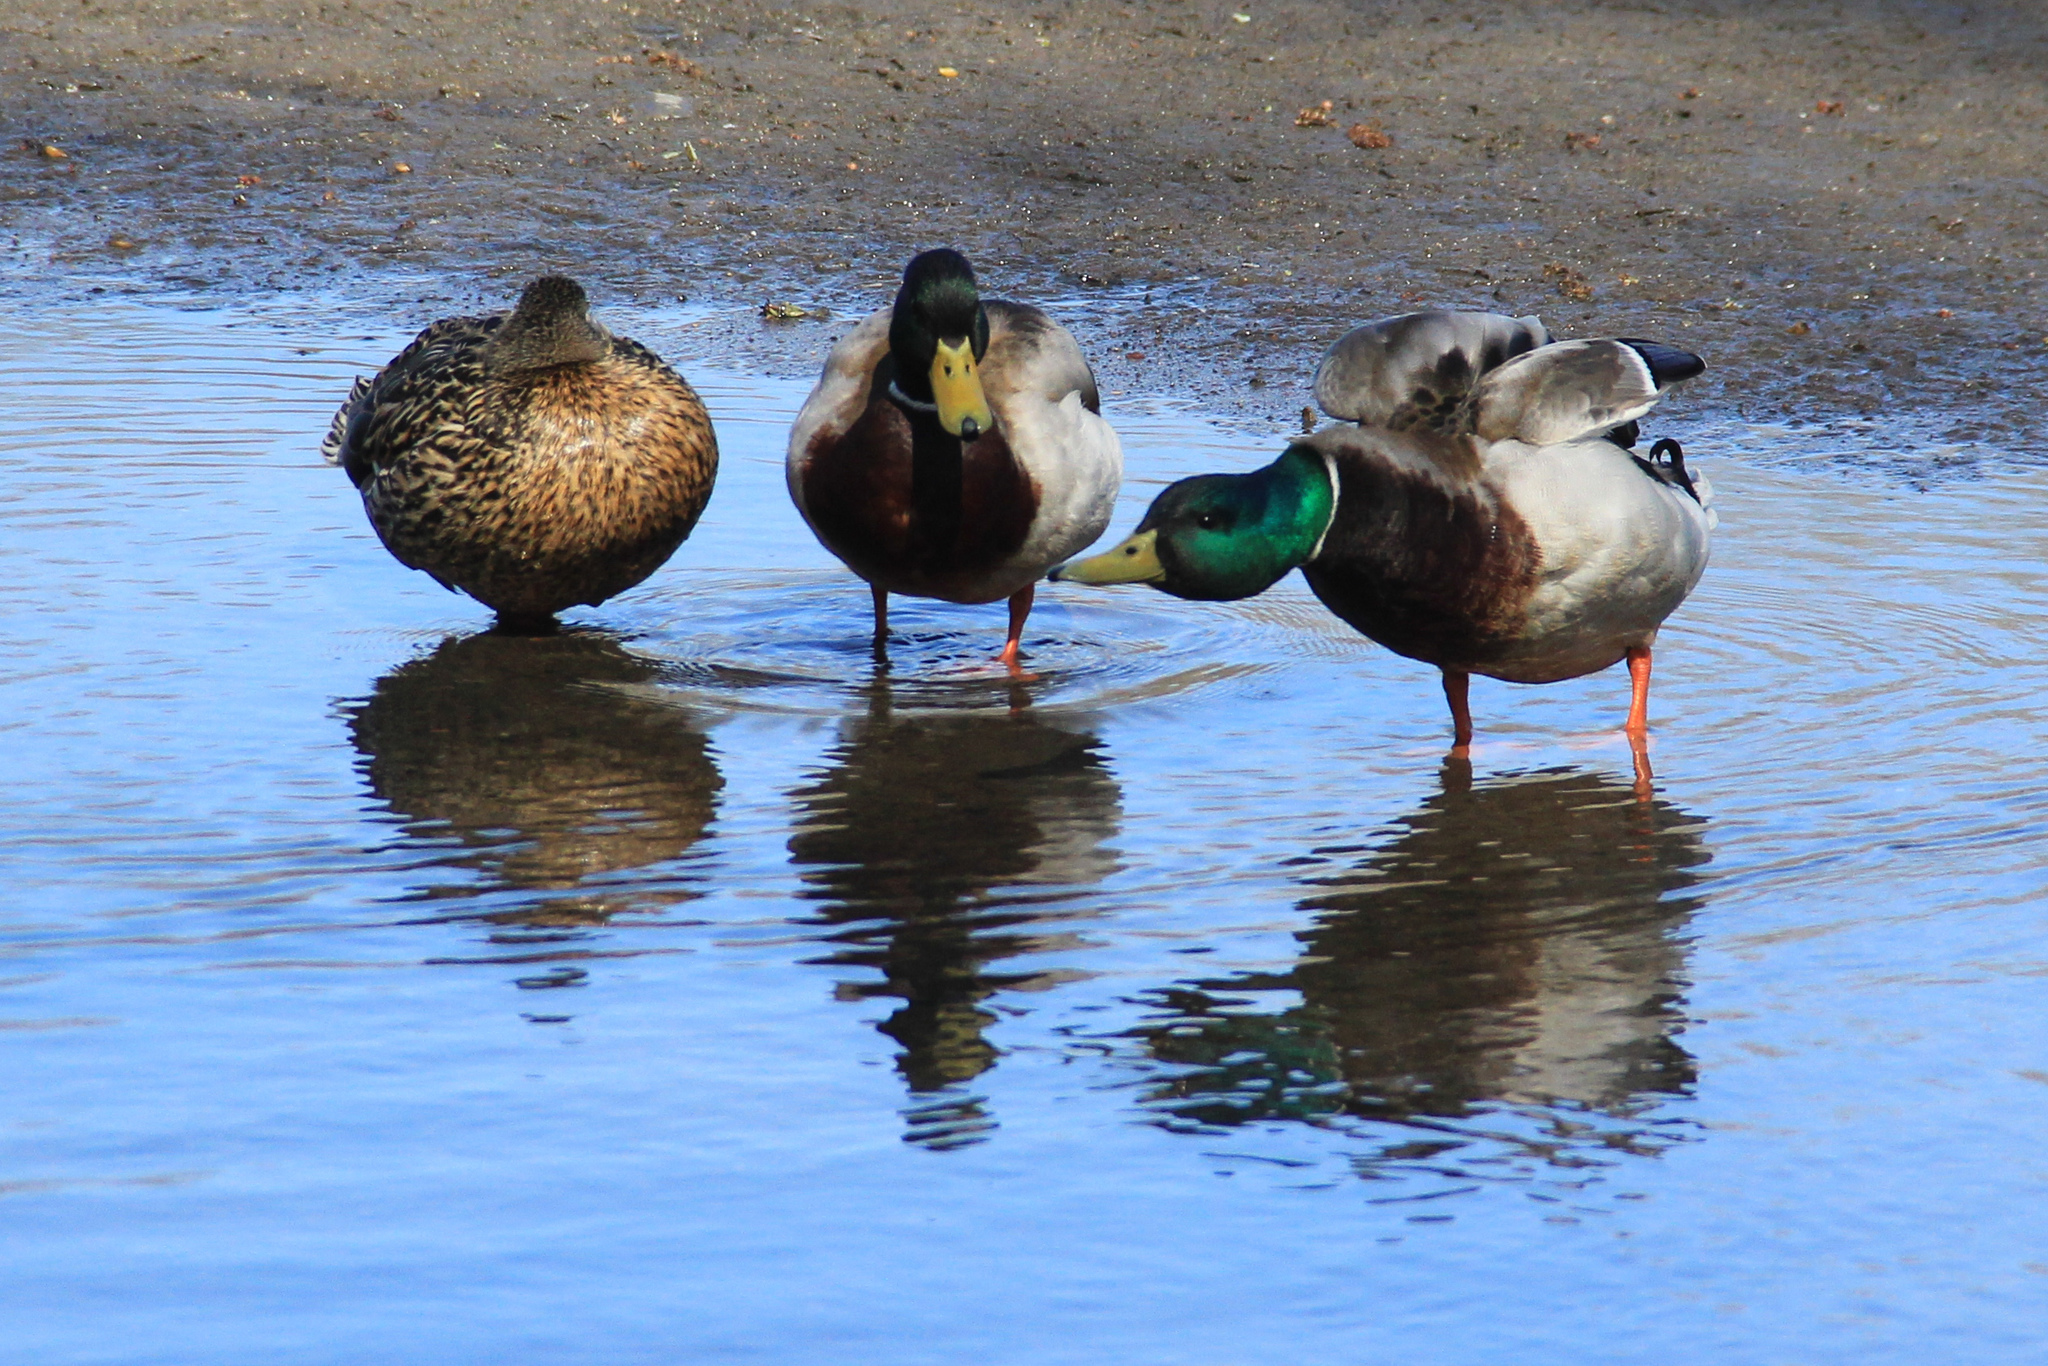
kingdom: Animalia
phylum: Chordata
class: Aves
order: Anseriformes
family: Anatidae
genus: Anas
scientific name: Anas platyrhynchos
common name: Mallard
